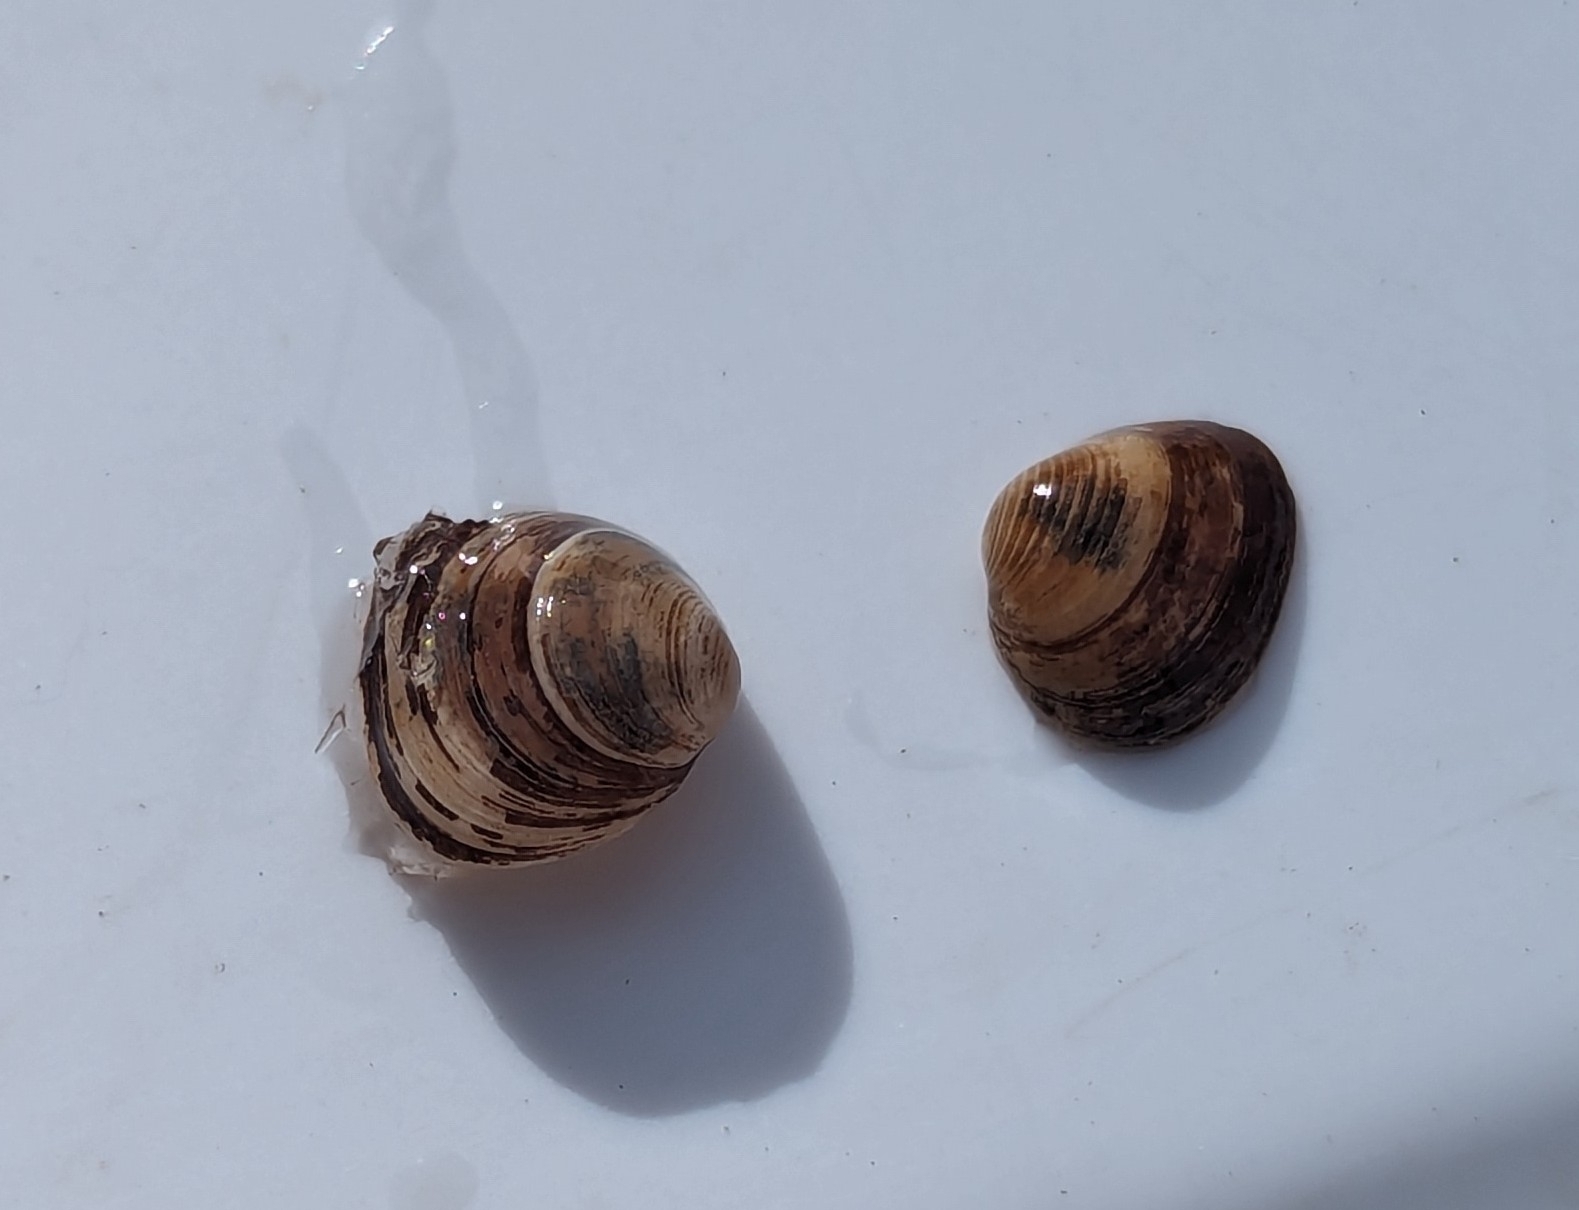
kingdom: Animalia
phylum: Mollusca
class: Bivalvia
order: Sphaeriida
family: Sphaeriidae
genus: Sphaerium
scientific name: Sphaerium striatinum
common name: Striated fingernailclam
